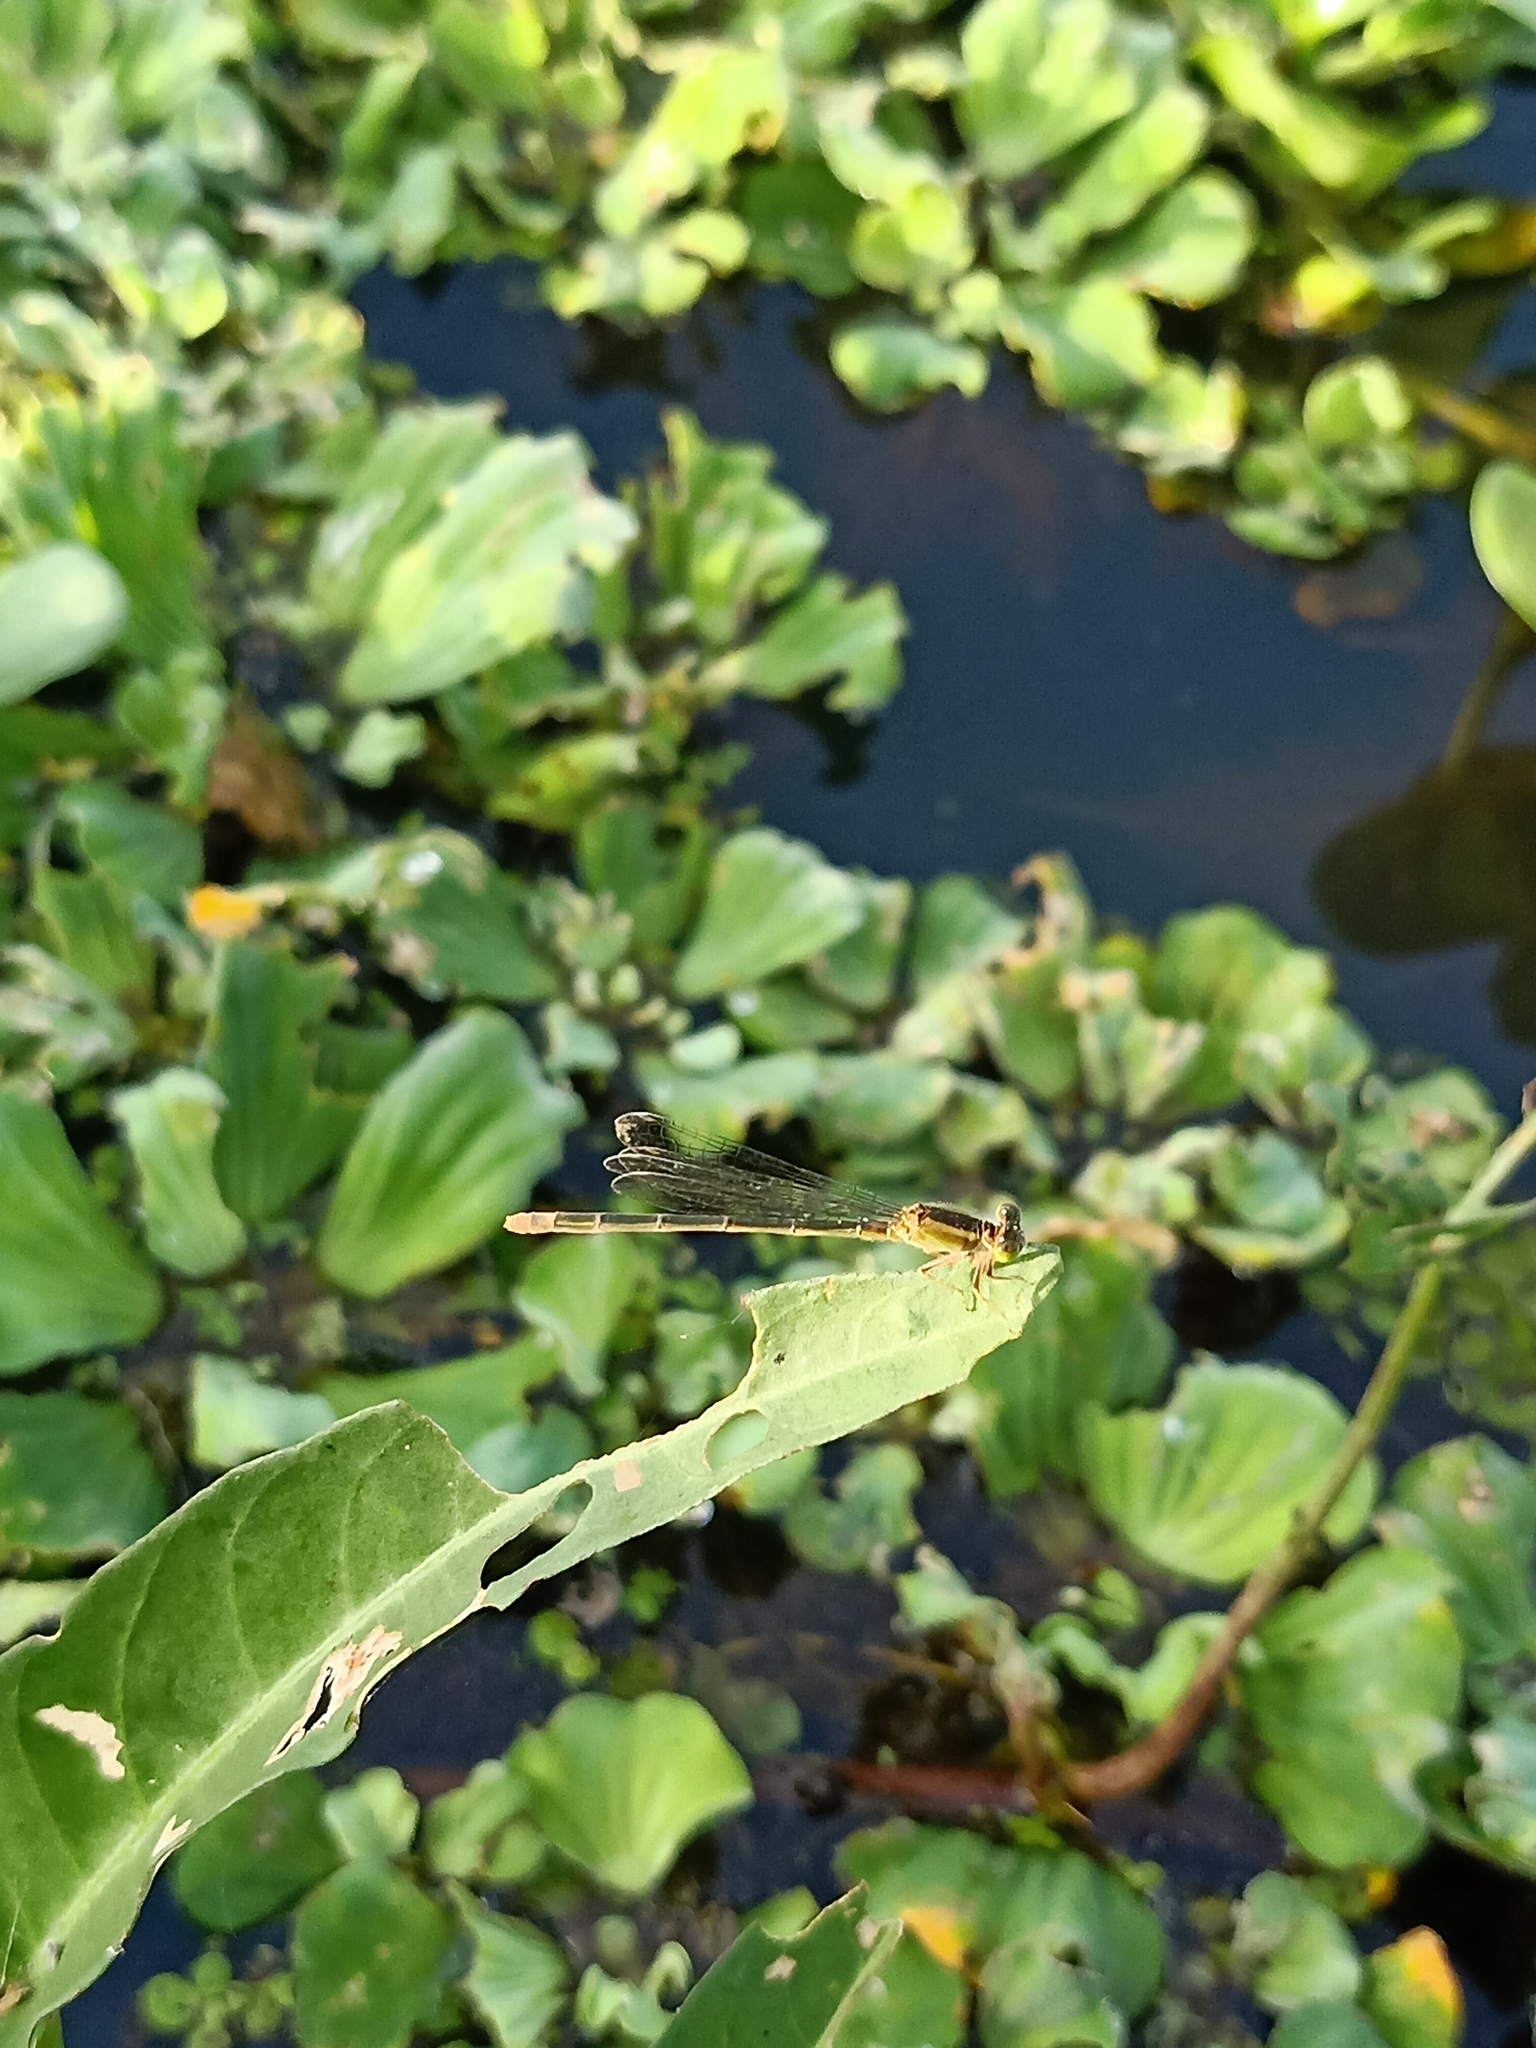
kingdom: Animalia
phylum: Arthropoda
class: Insecta
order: Odonata
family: Coenagrionidae
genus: Ischnura
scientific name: Ischnura senegalensis
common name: Tropical bluetail
